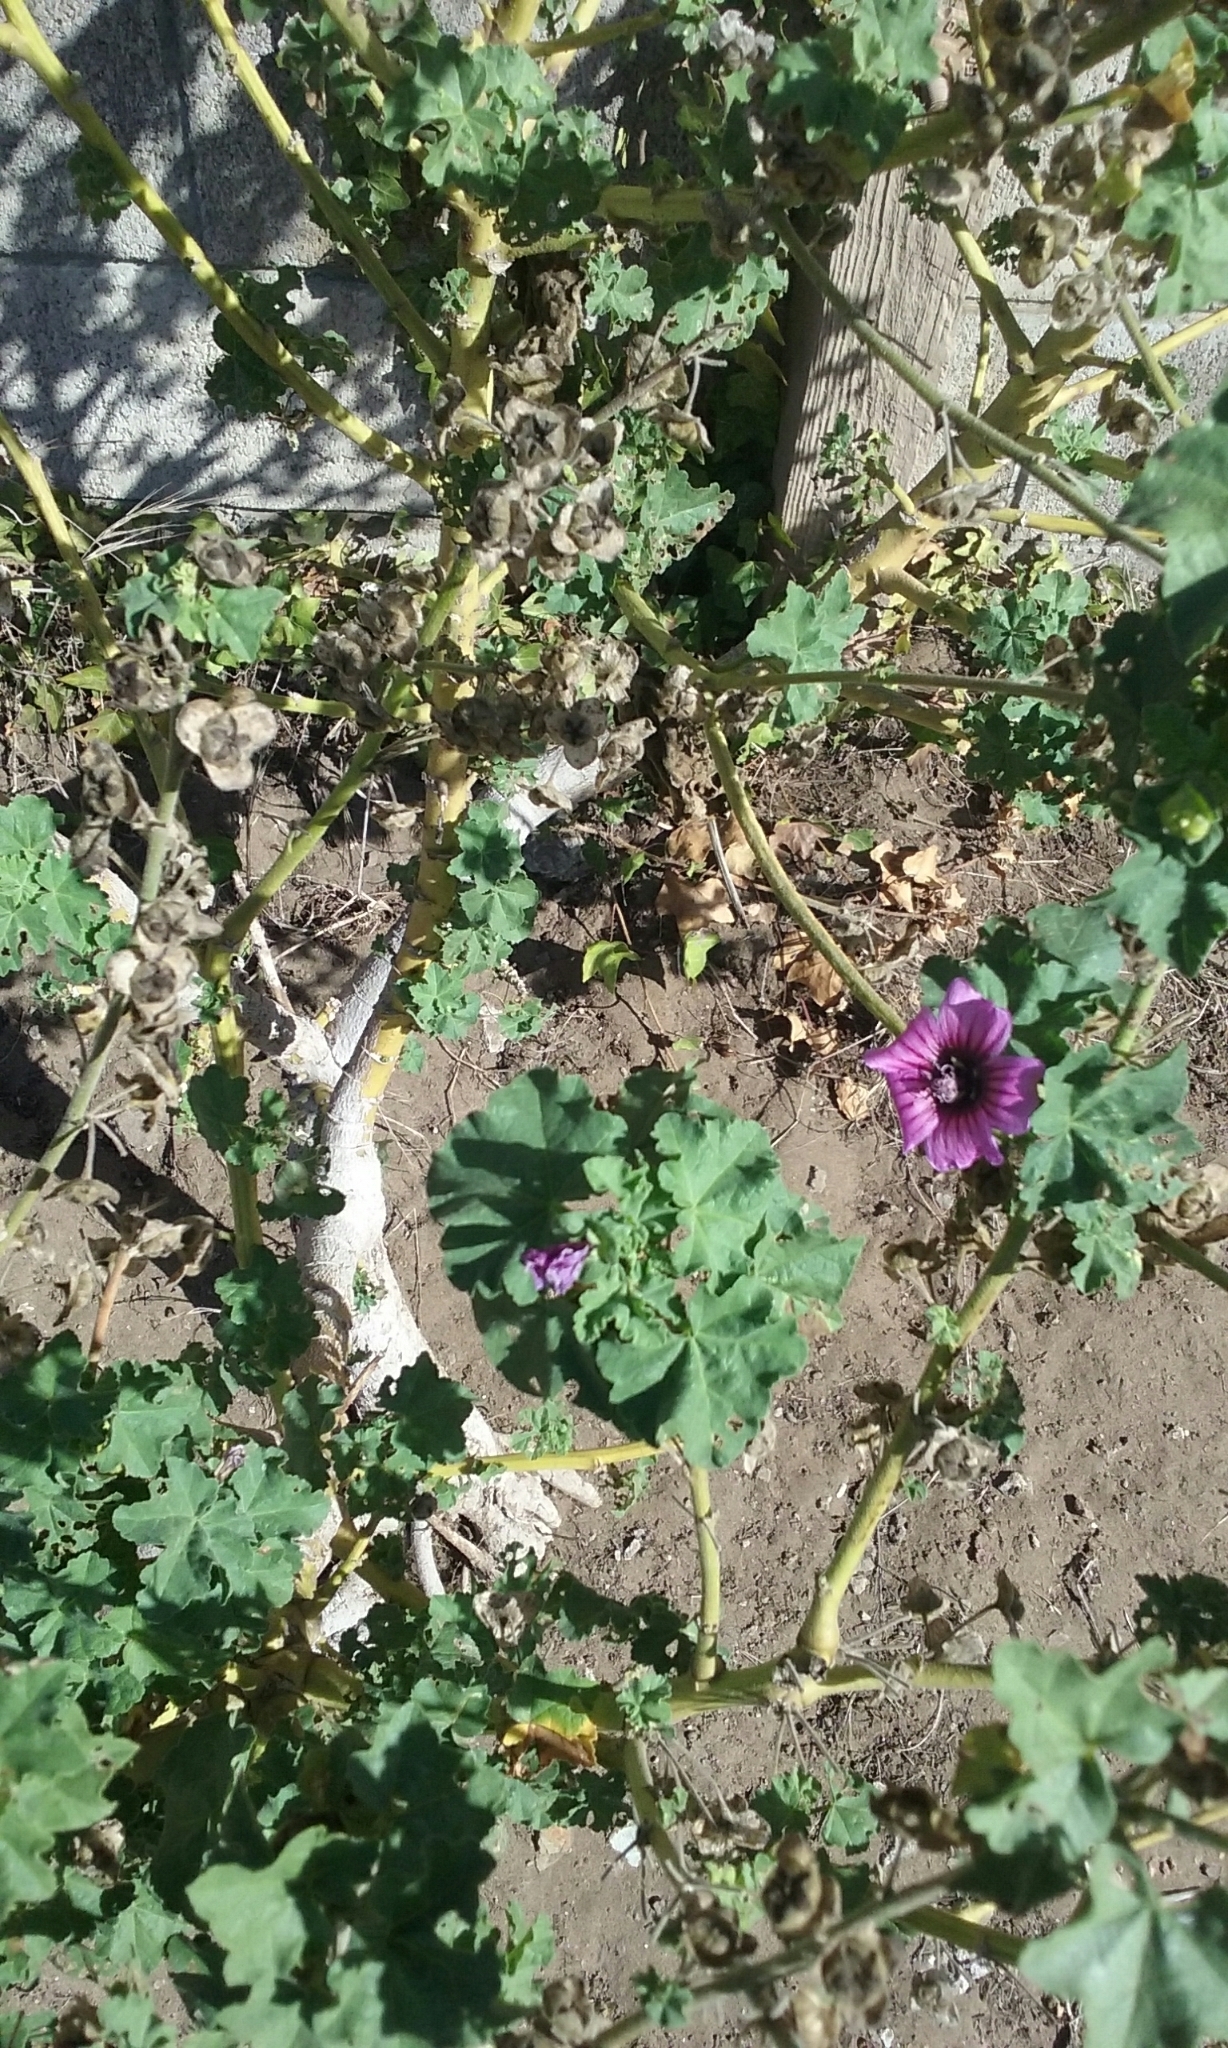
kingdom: Plantae
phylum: Tracheophyta
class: Magnoliopsida
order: Malvales
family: Malvaceae
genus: Malva
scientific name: Malva arborea
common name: Tree mallow
